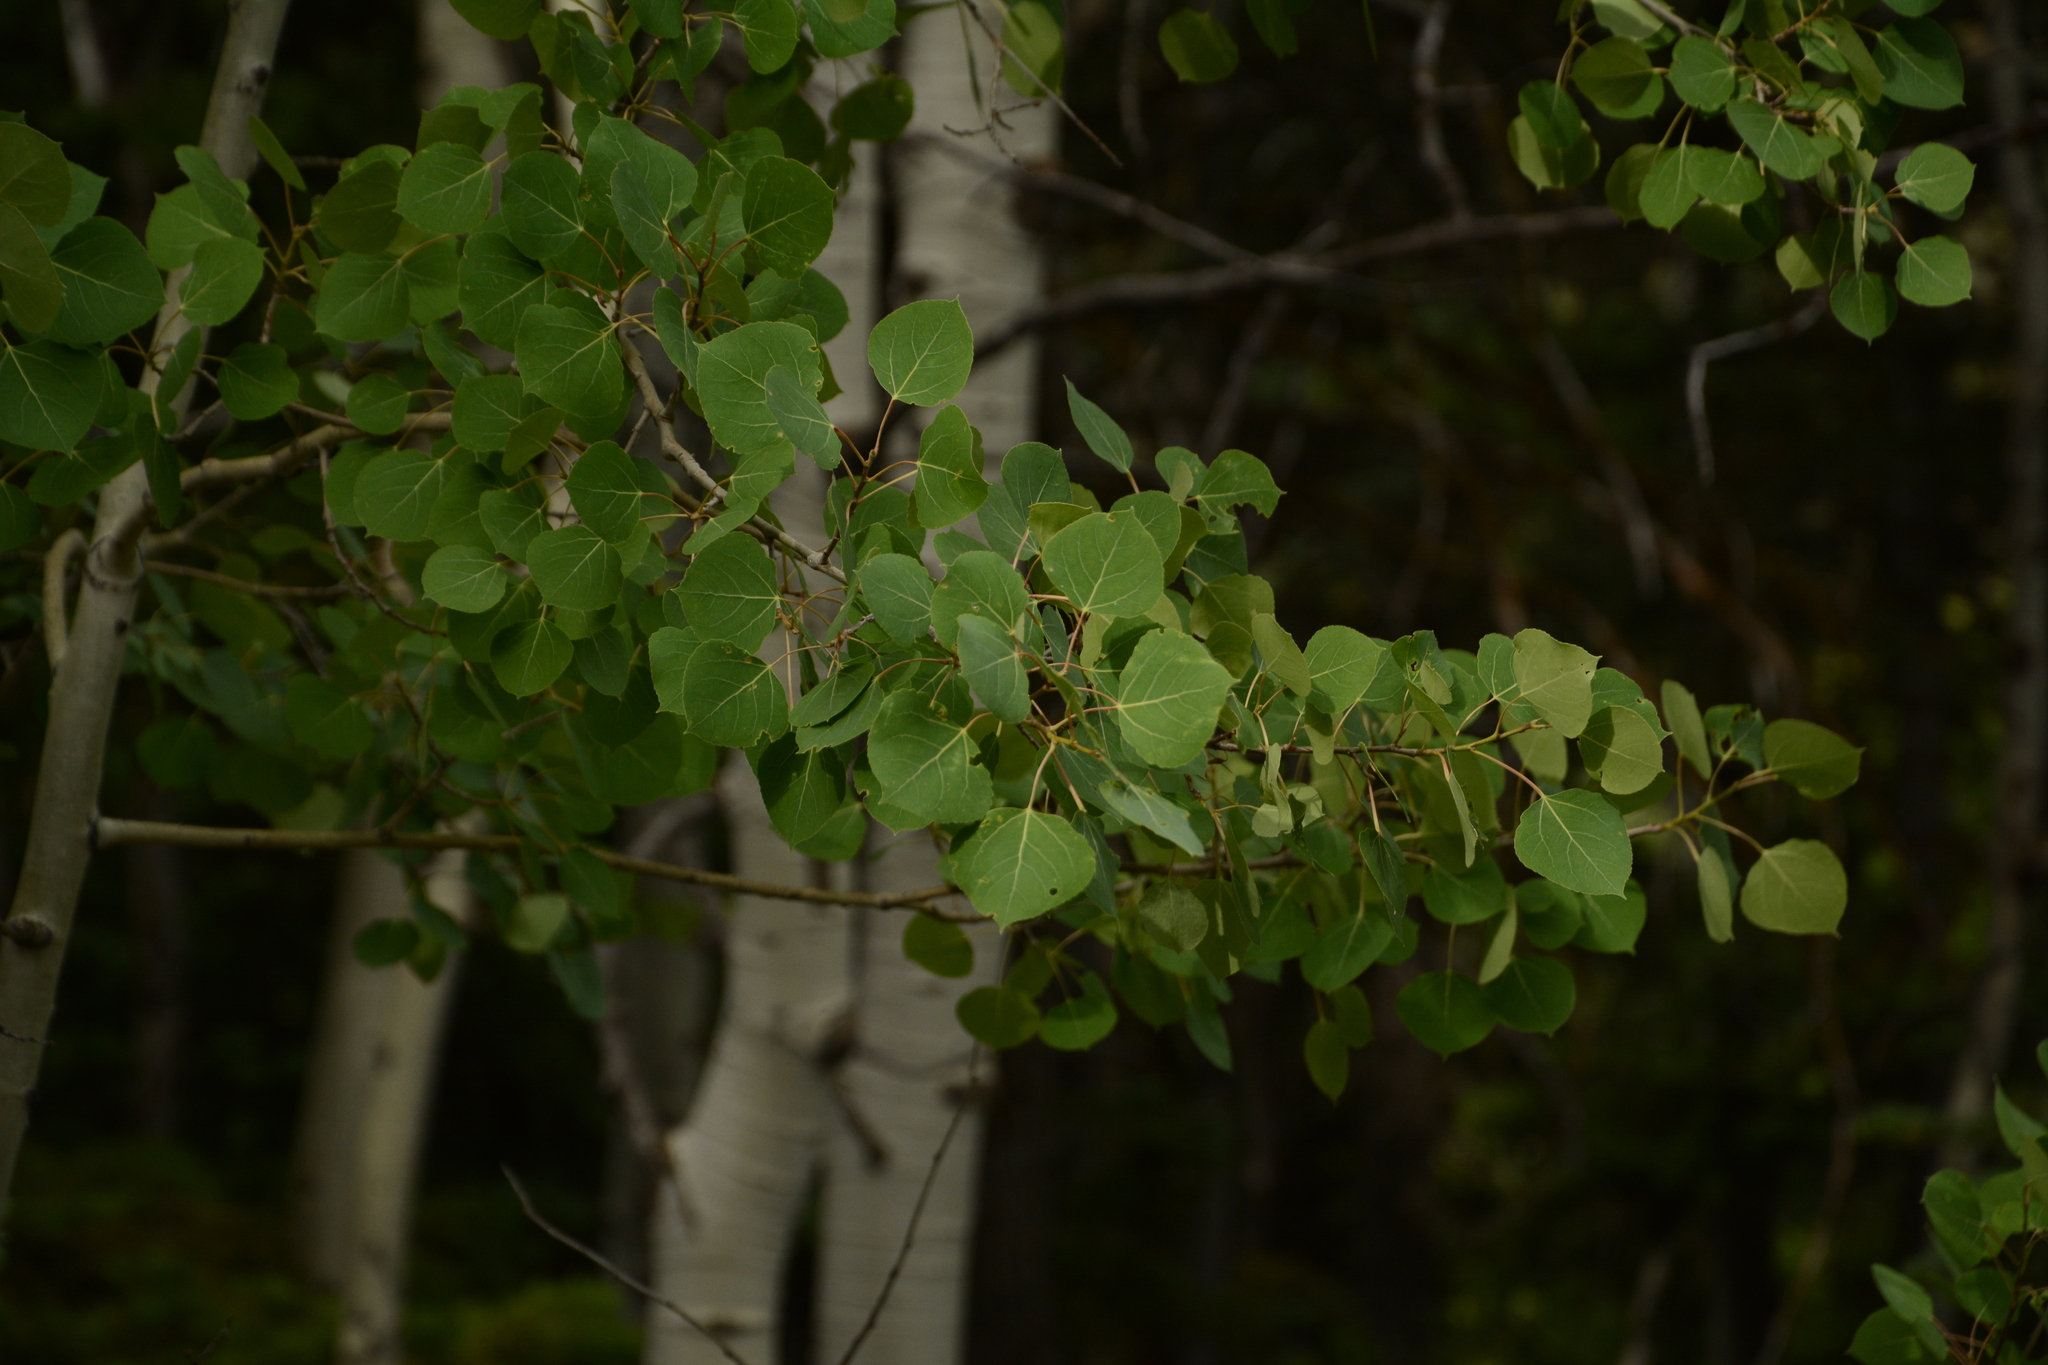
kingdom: Plantae
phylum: Tracheophyta
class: Magnoliopsida
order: Malpighiales
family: Salicaceae
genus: Populus
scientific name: Populus tremuloides
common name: Quaking aspen
